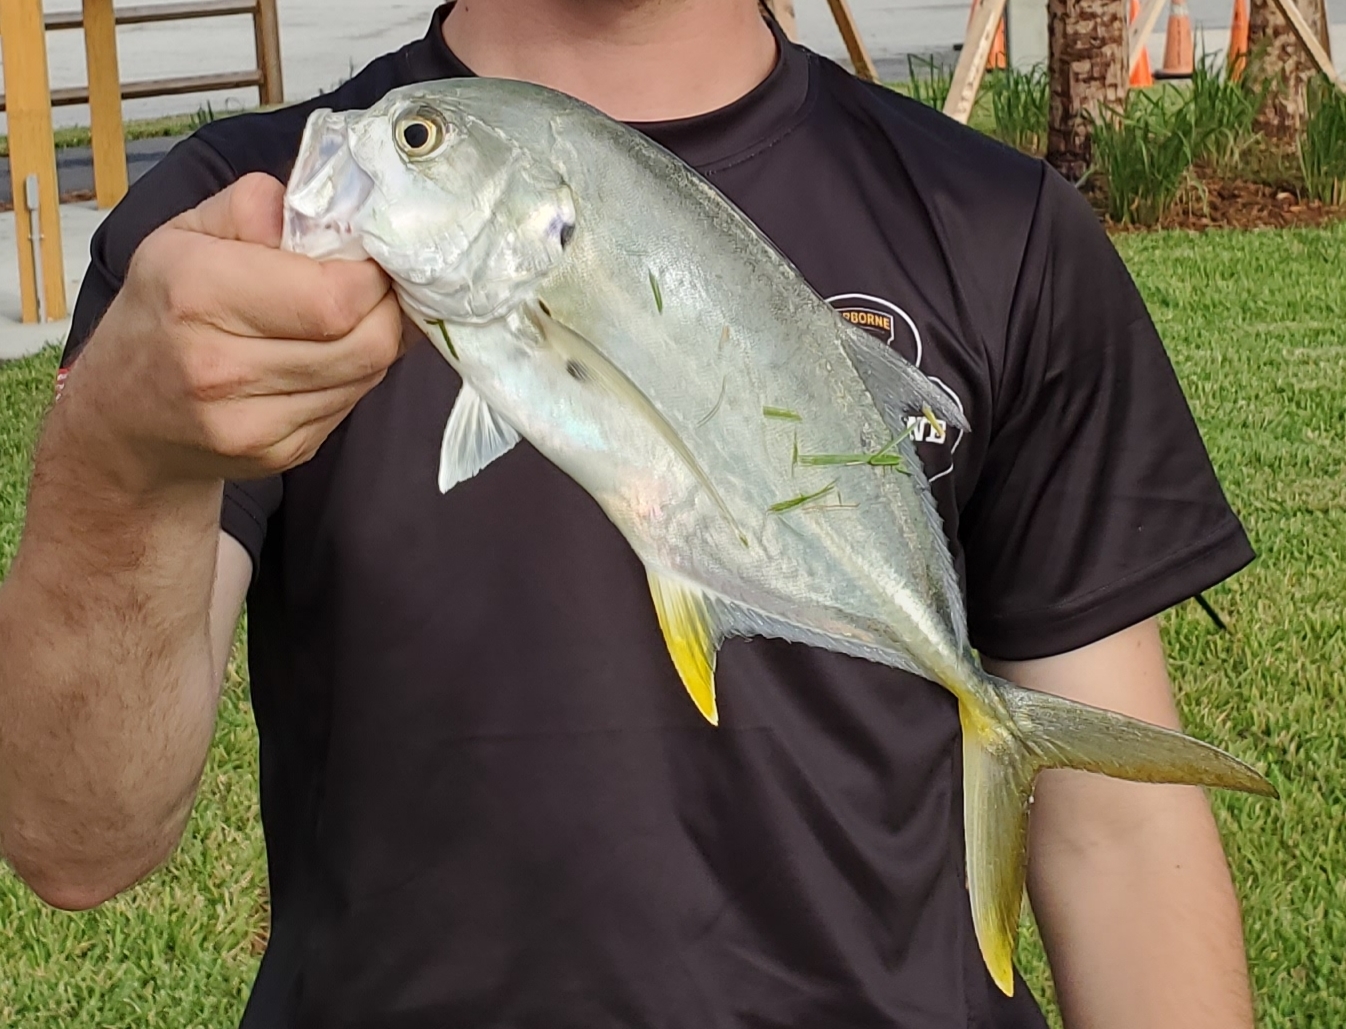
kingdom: Animalia
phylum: Chordata
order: Perciformes
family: Carangidae
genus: Caranx
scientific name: Caranx hippos
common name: Common jack
